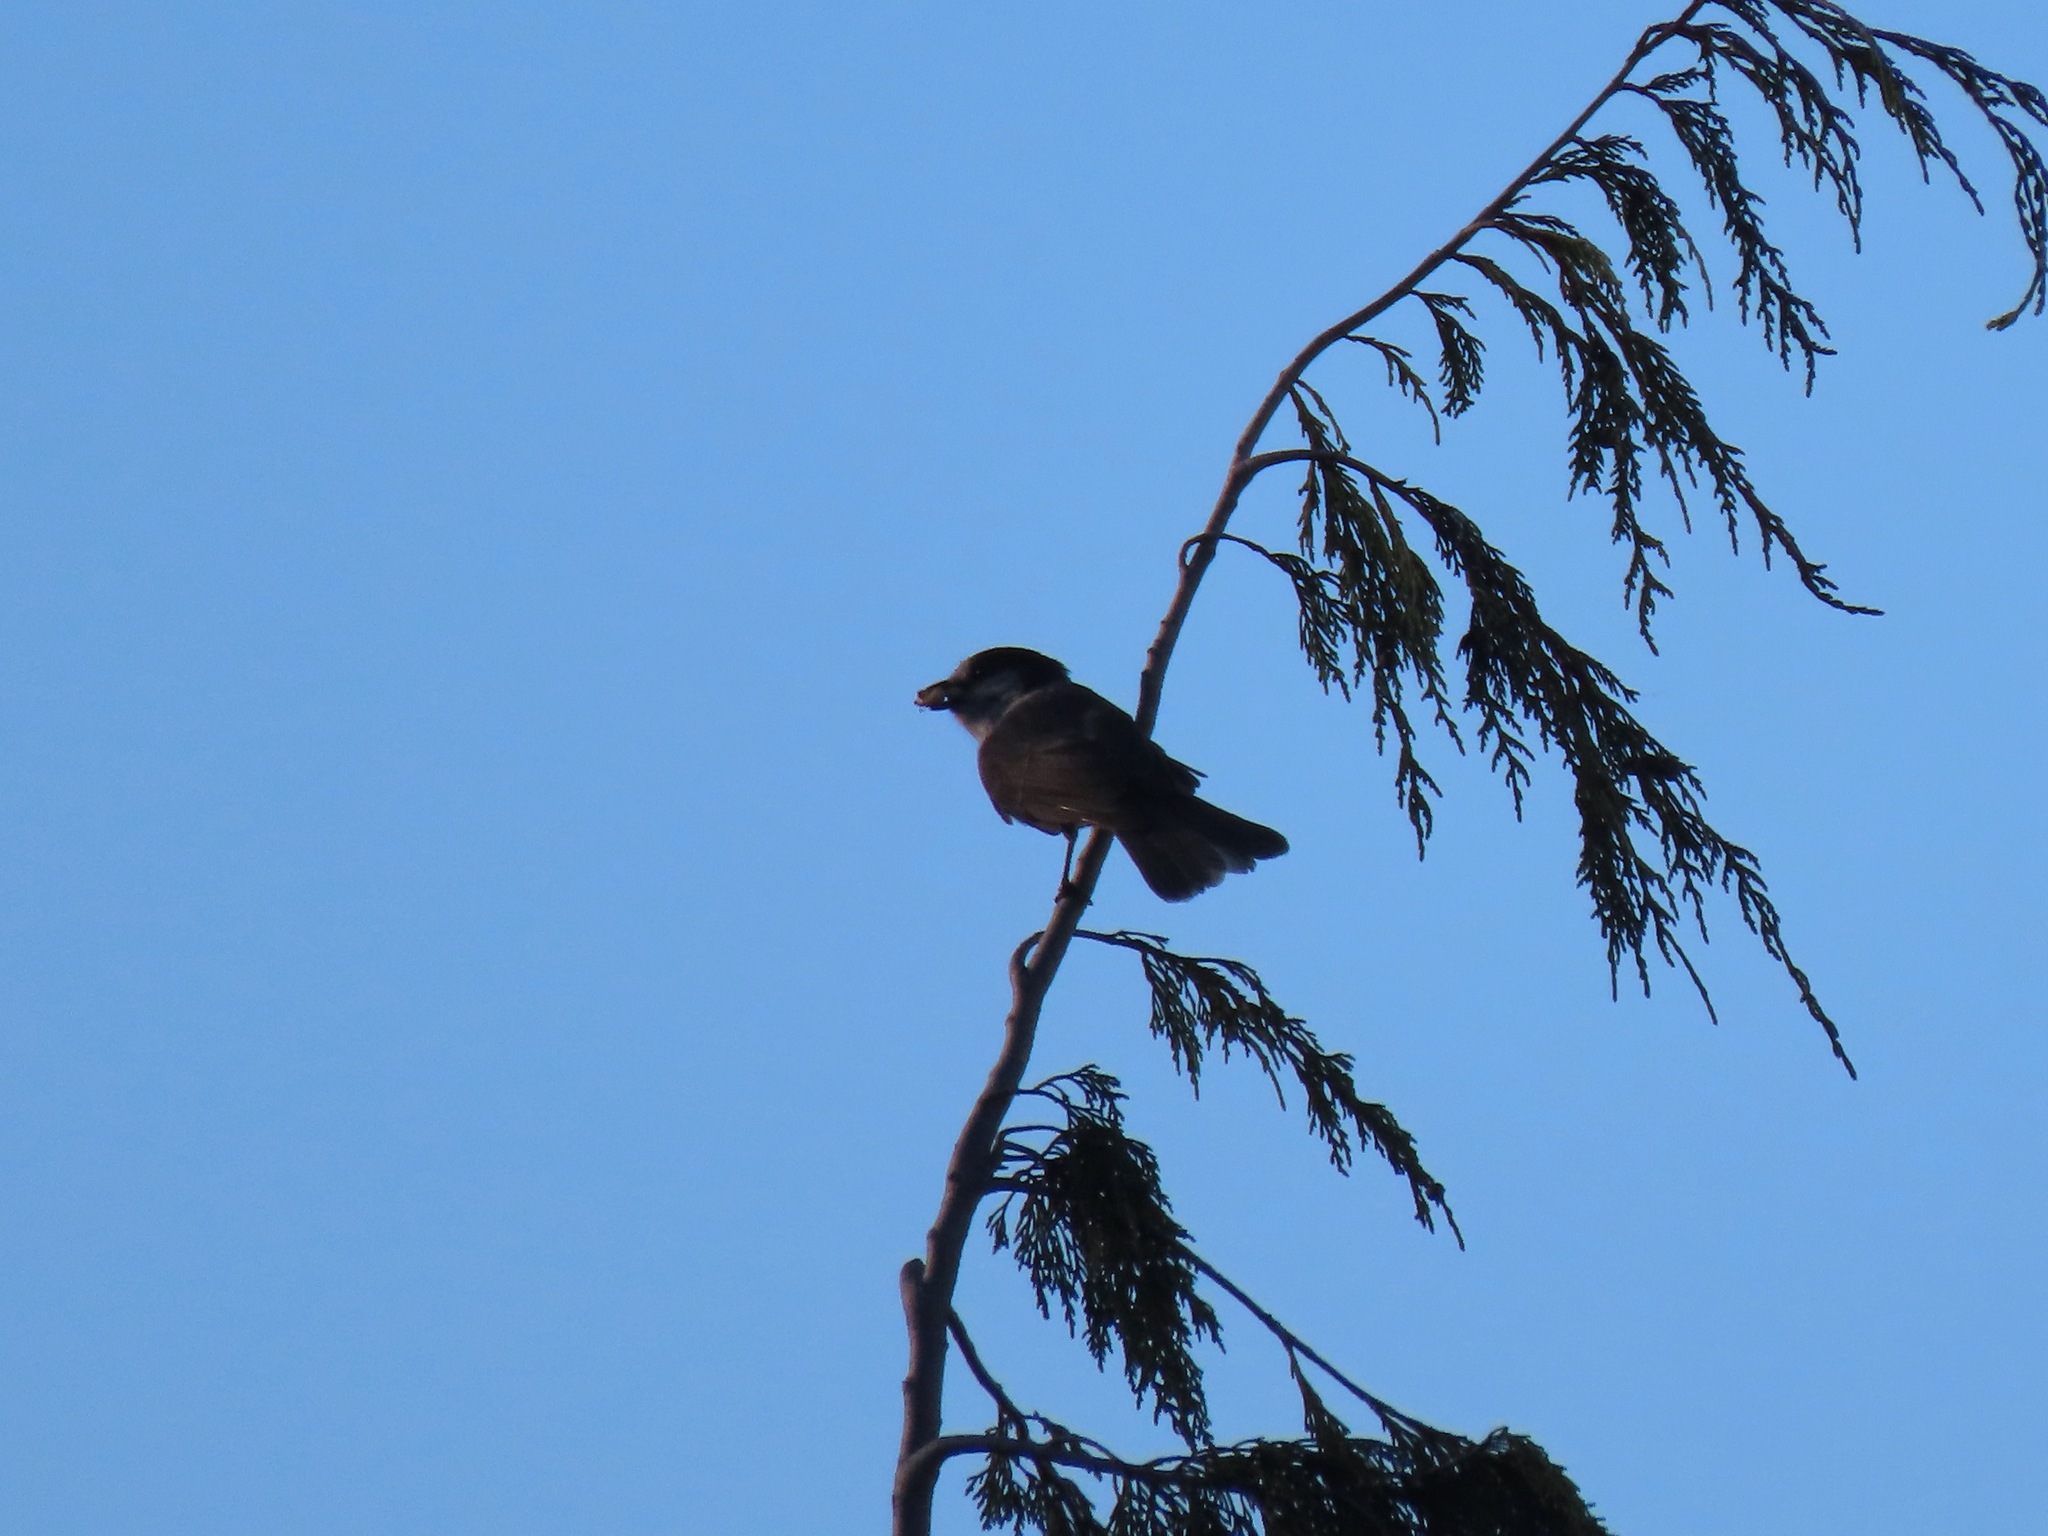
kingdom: Animalia
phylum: Chordata
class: Aves
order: Passeriformes
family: Corvidae
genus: Perisoreus
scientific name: Perisoreus canadensis
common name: Gray jay
